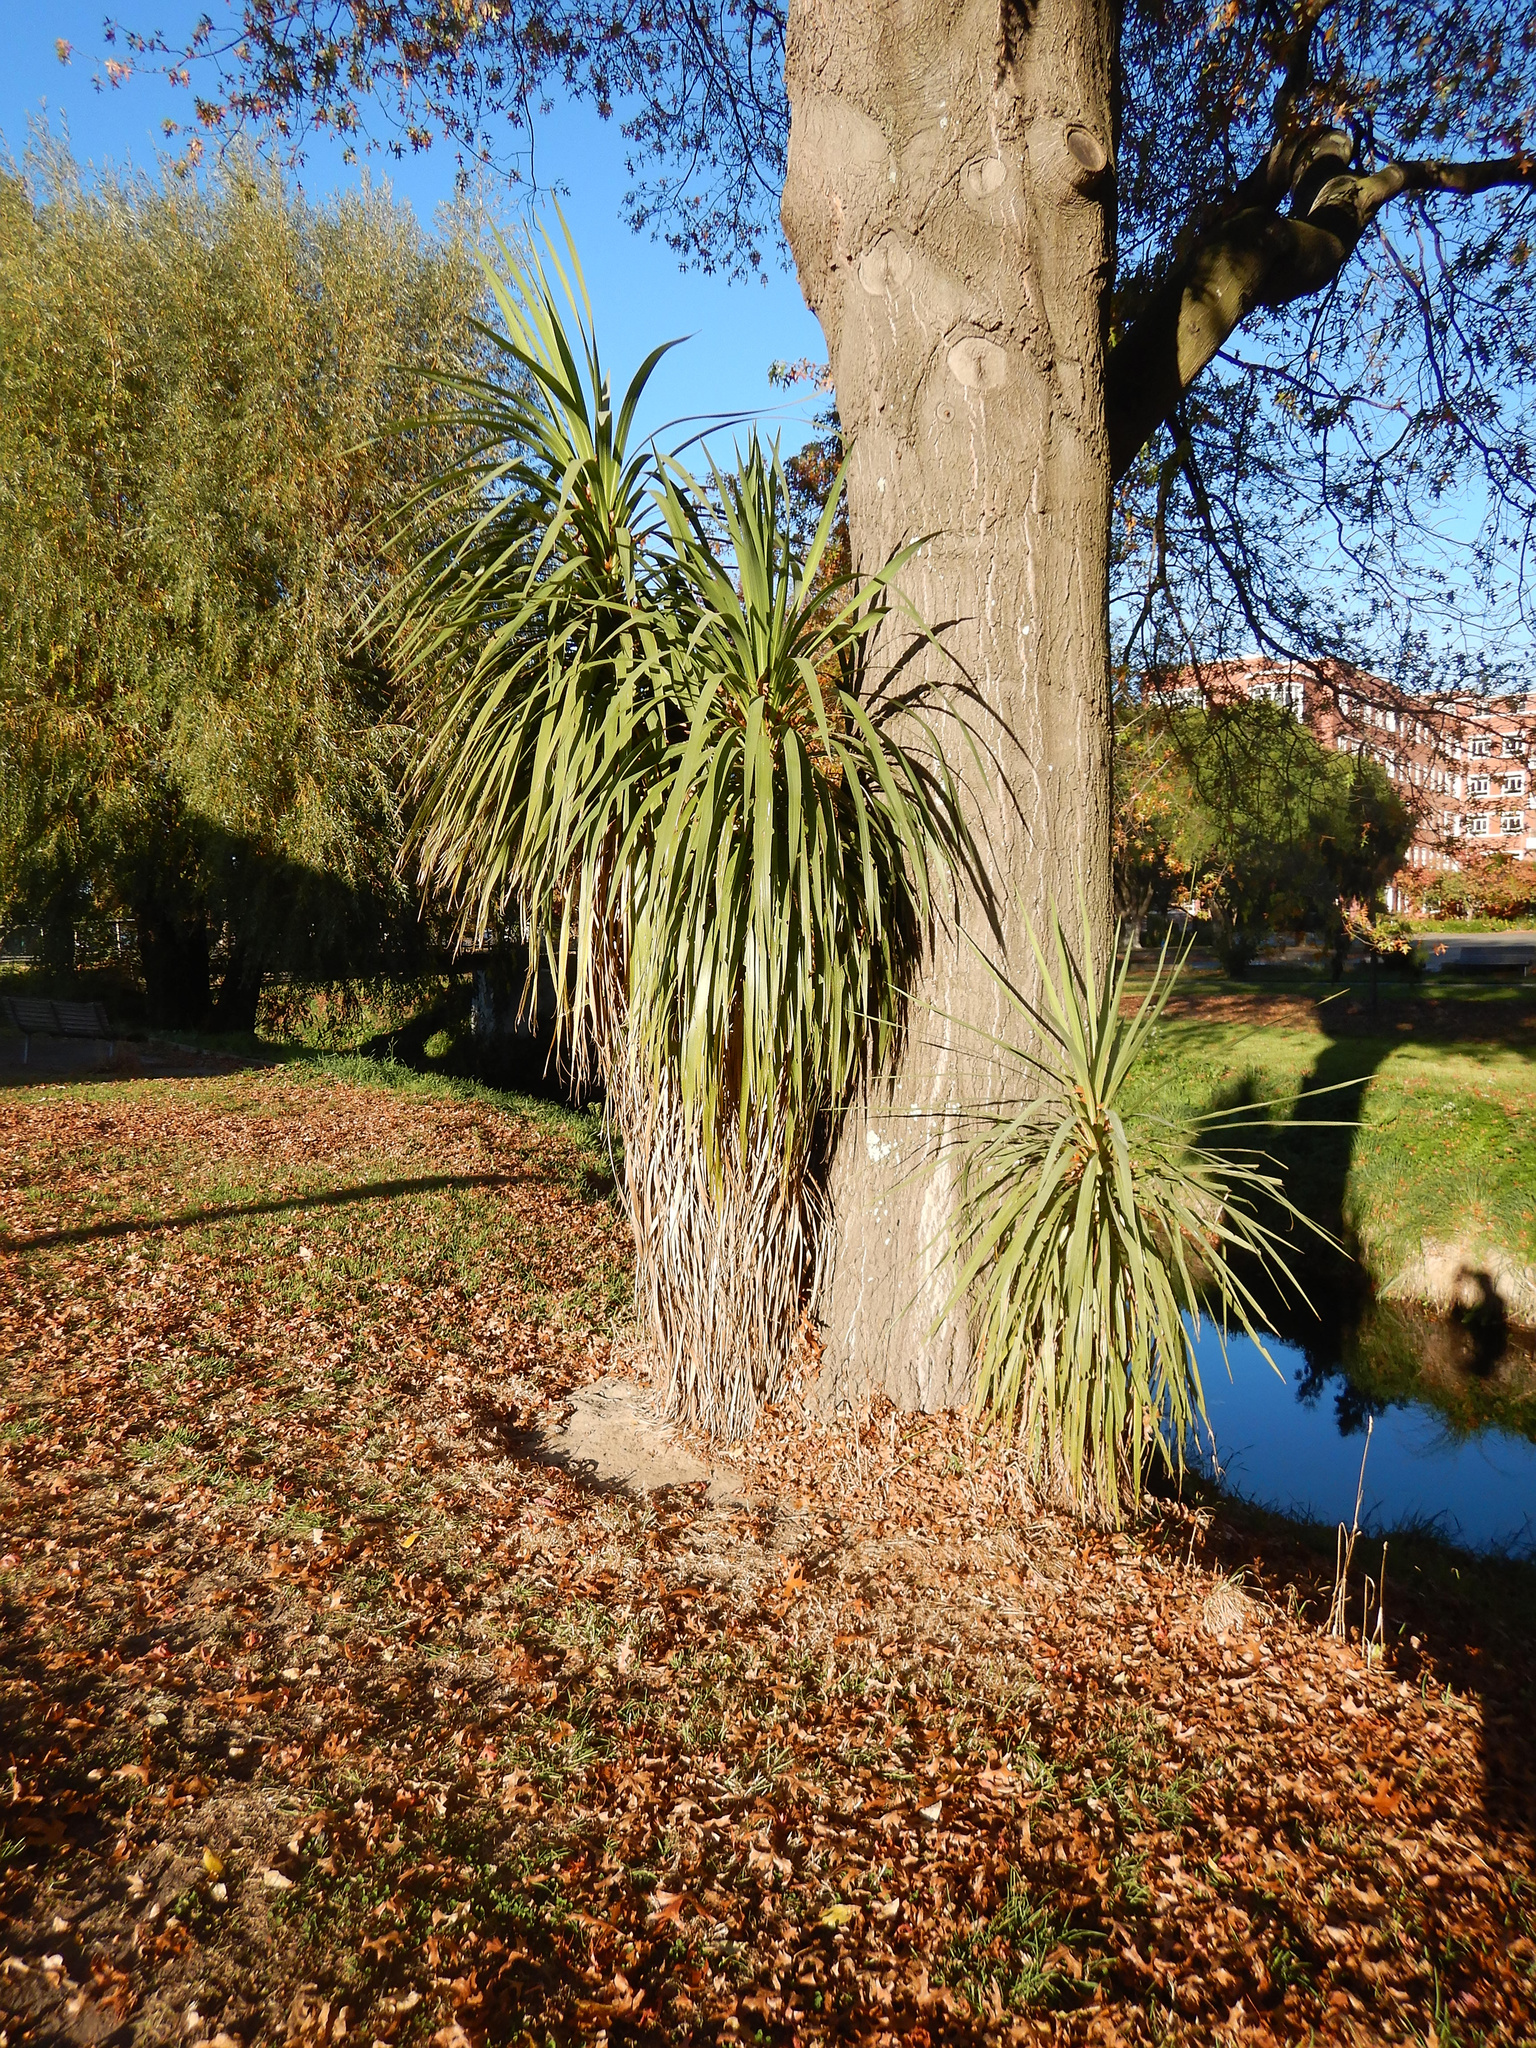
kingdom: Plantae
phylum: Tracheophyta
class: Liliopsida
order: Asparagales
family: Asparagaceae
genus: Cordyline
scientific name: Cordyline australis
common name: Cabbage-palm
